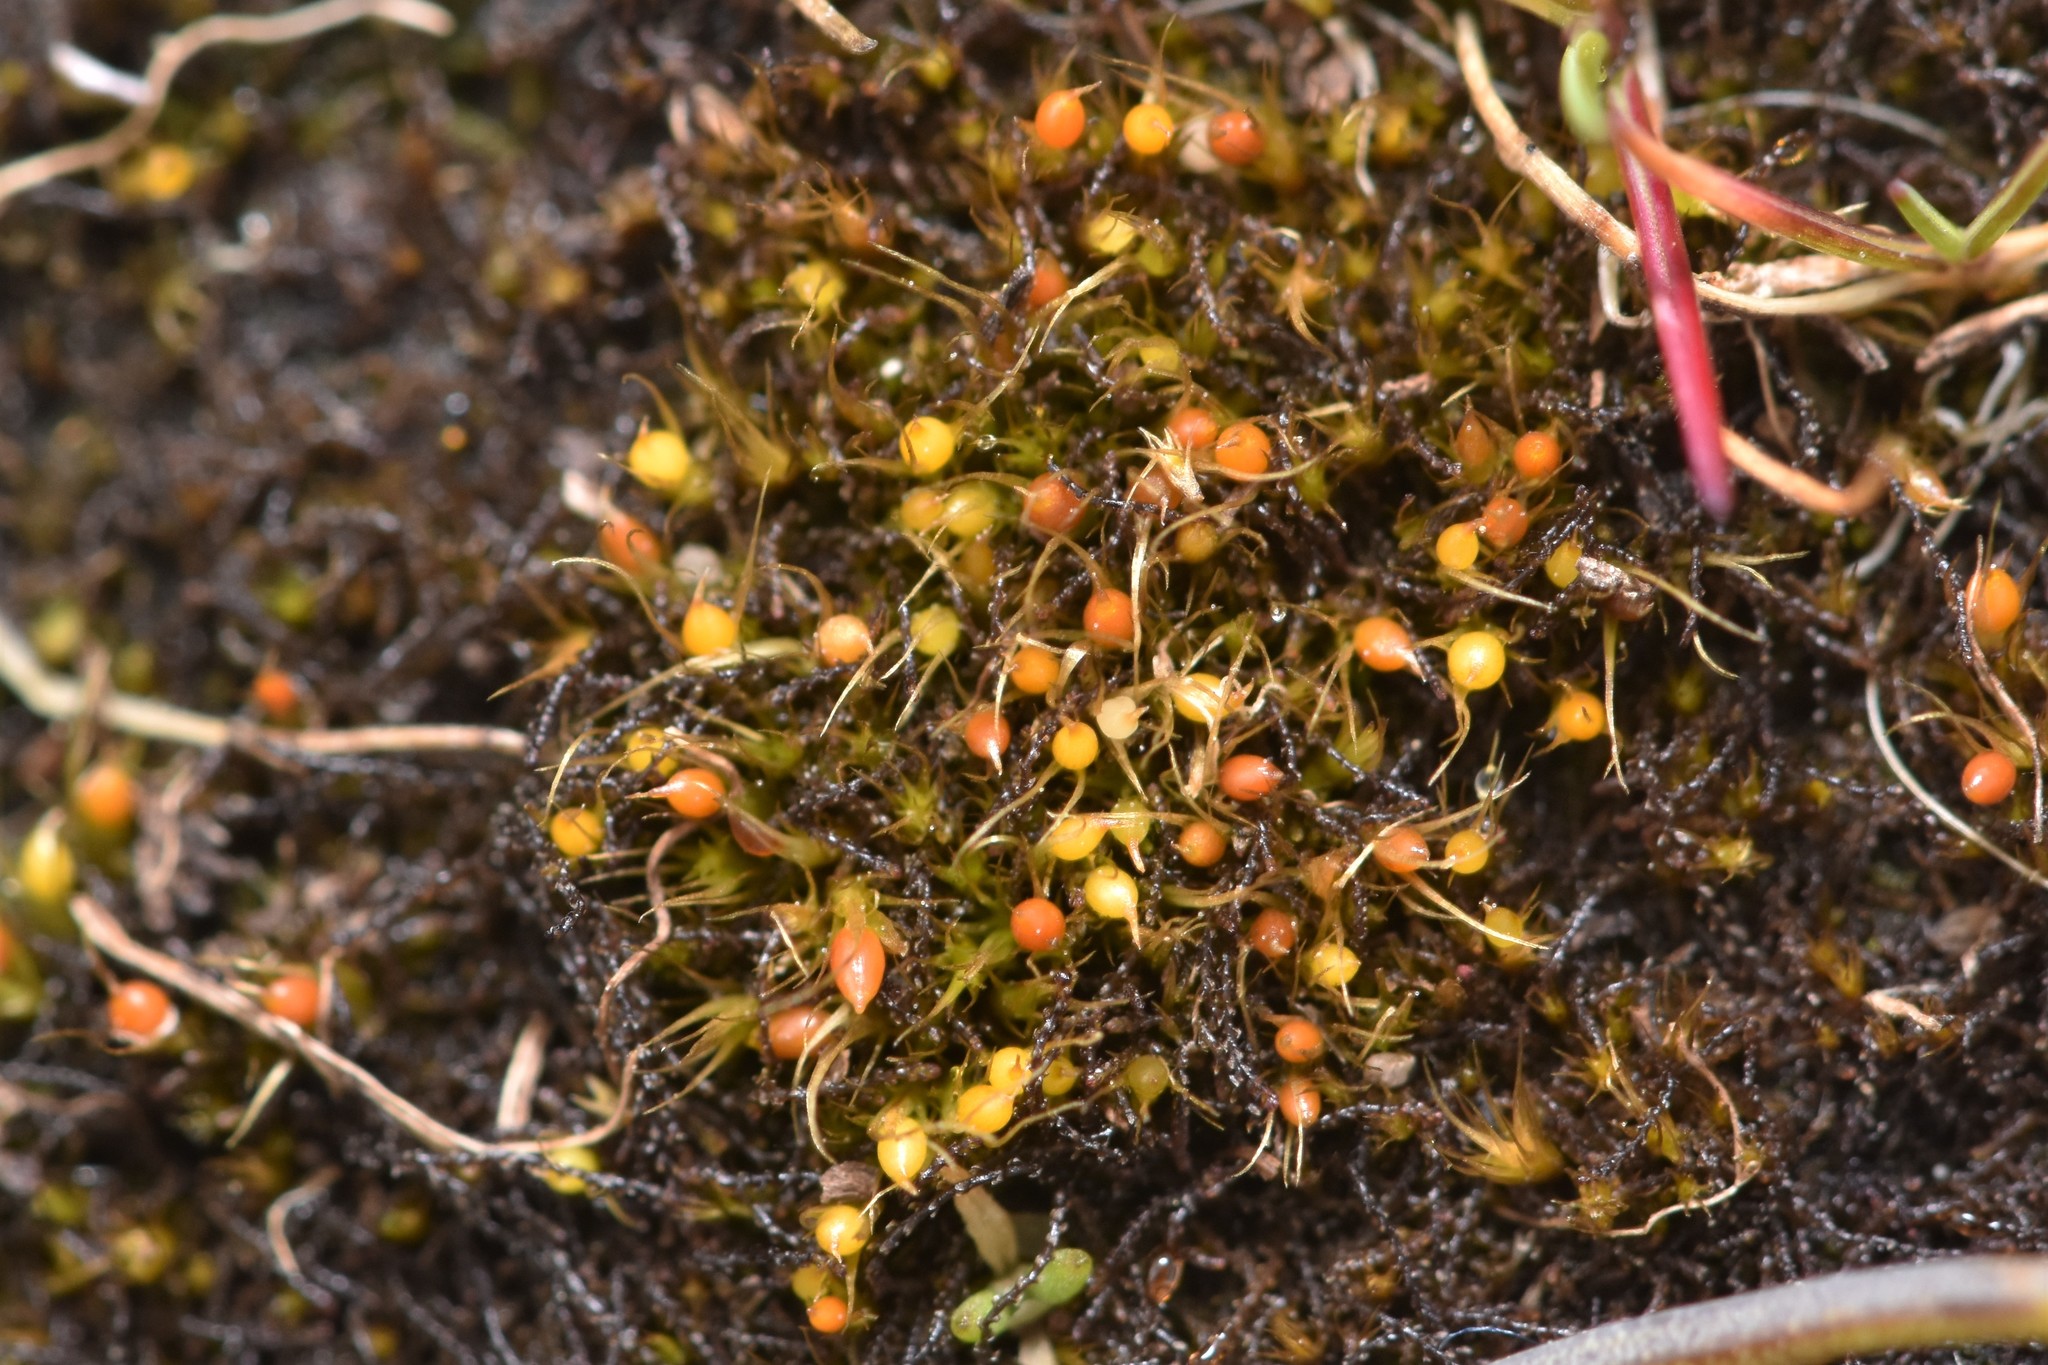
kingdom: Plantae
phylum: Bryophyta
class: Bryopsida
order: Dicranales
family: Ditrichaceae
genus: Pleuridium
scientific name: Pleuridium acuminatum
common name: Taper-leaved earth-moss
